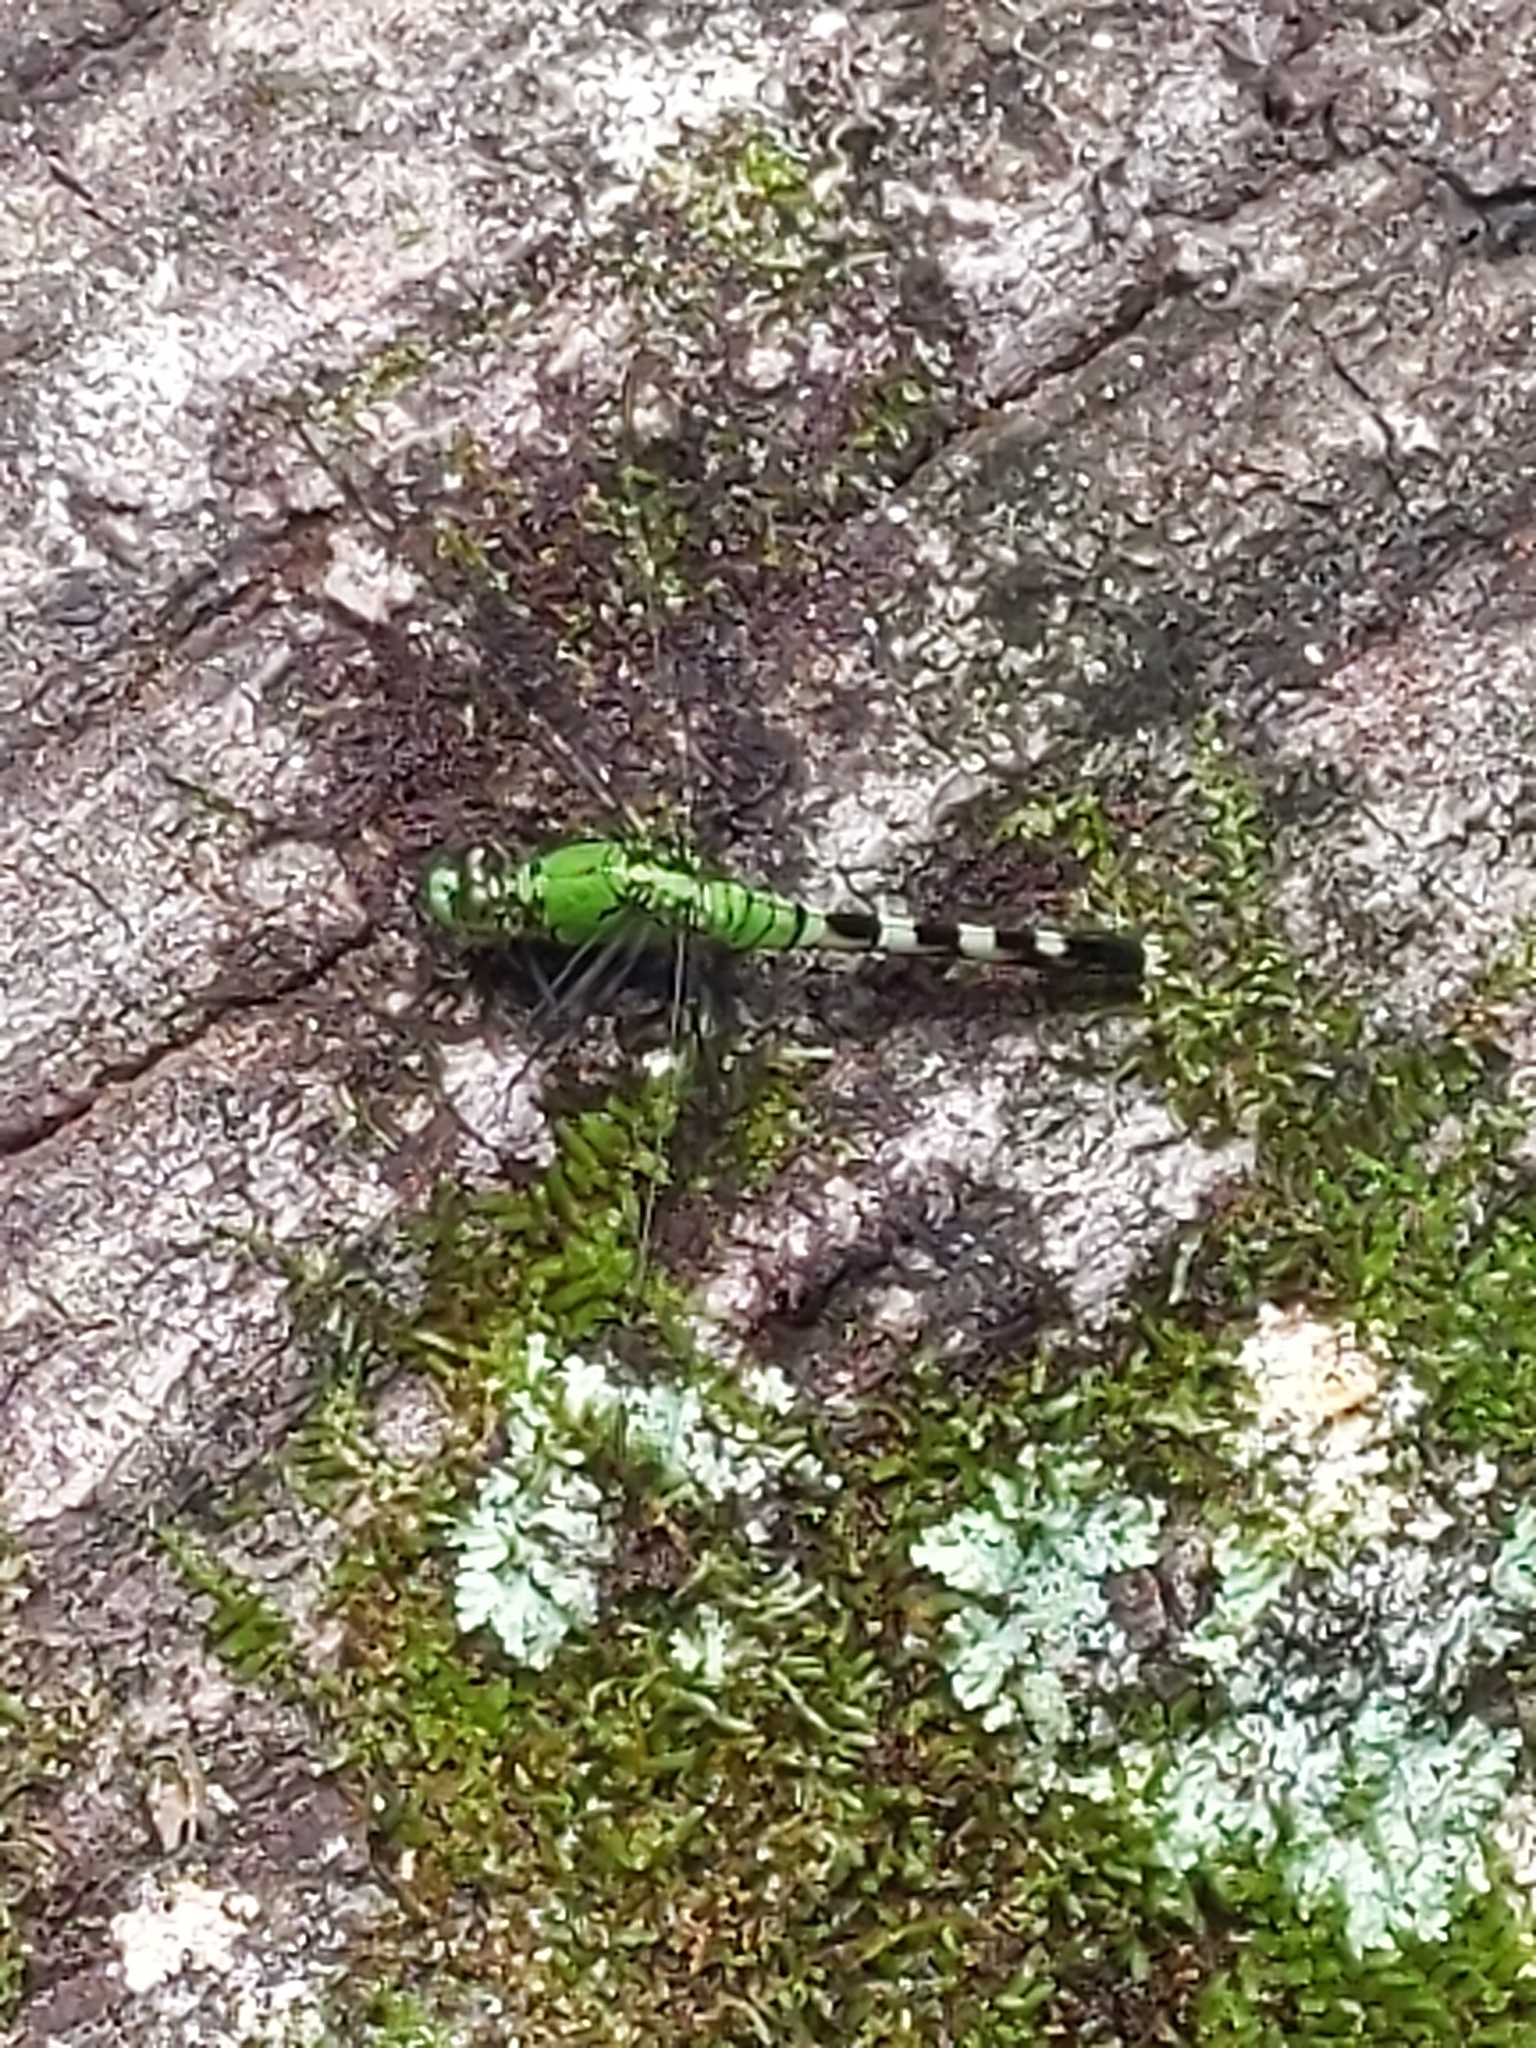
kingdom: Animalia
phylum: Arthropoda
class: Insecta
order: Odonata
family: Libellulidae
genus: Erythemis
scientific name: Erythemis simplicicollis
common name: Eastern pondhawk
